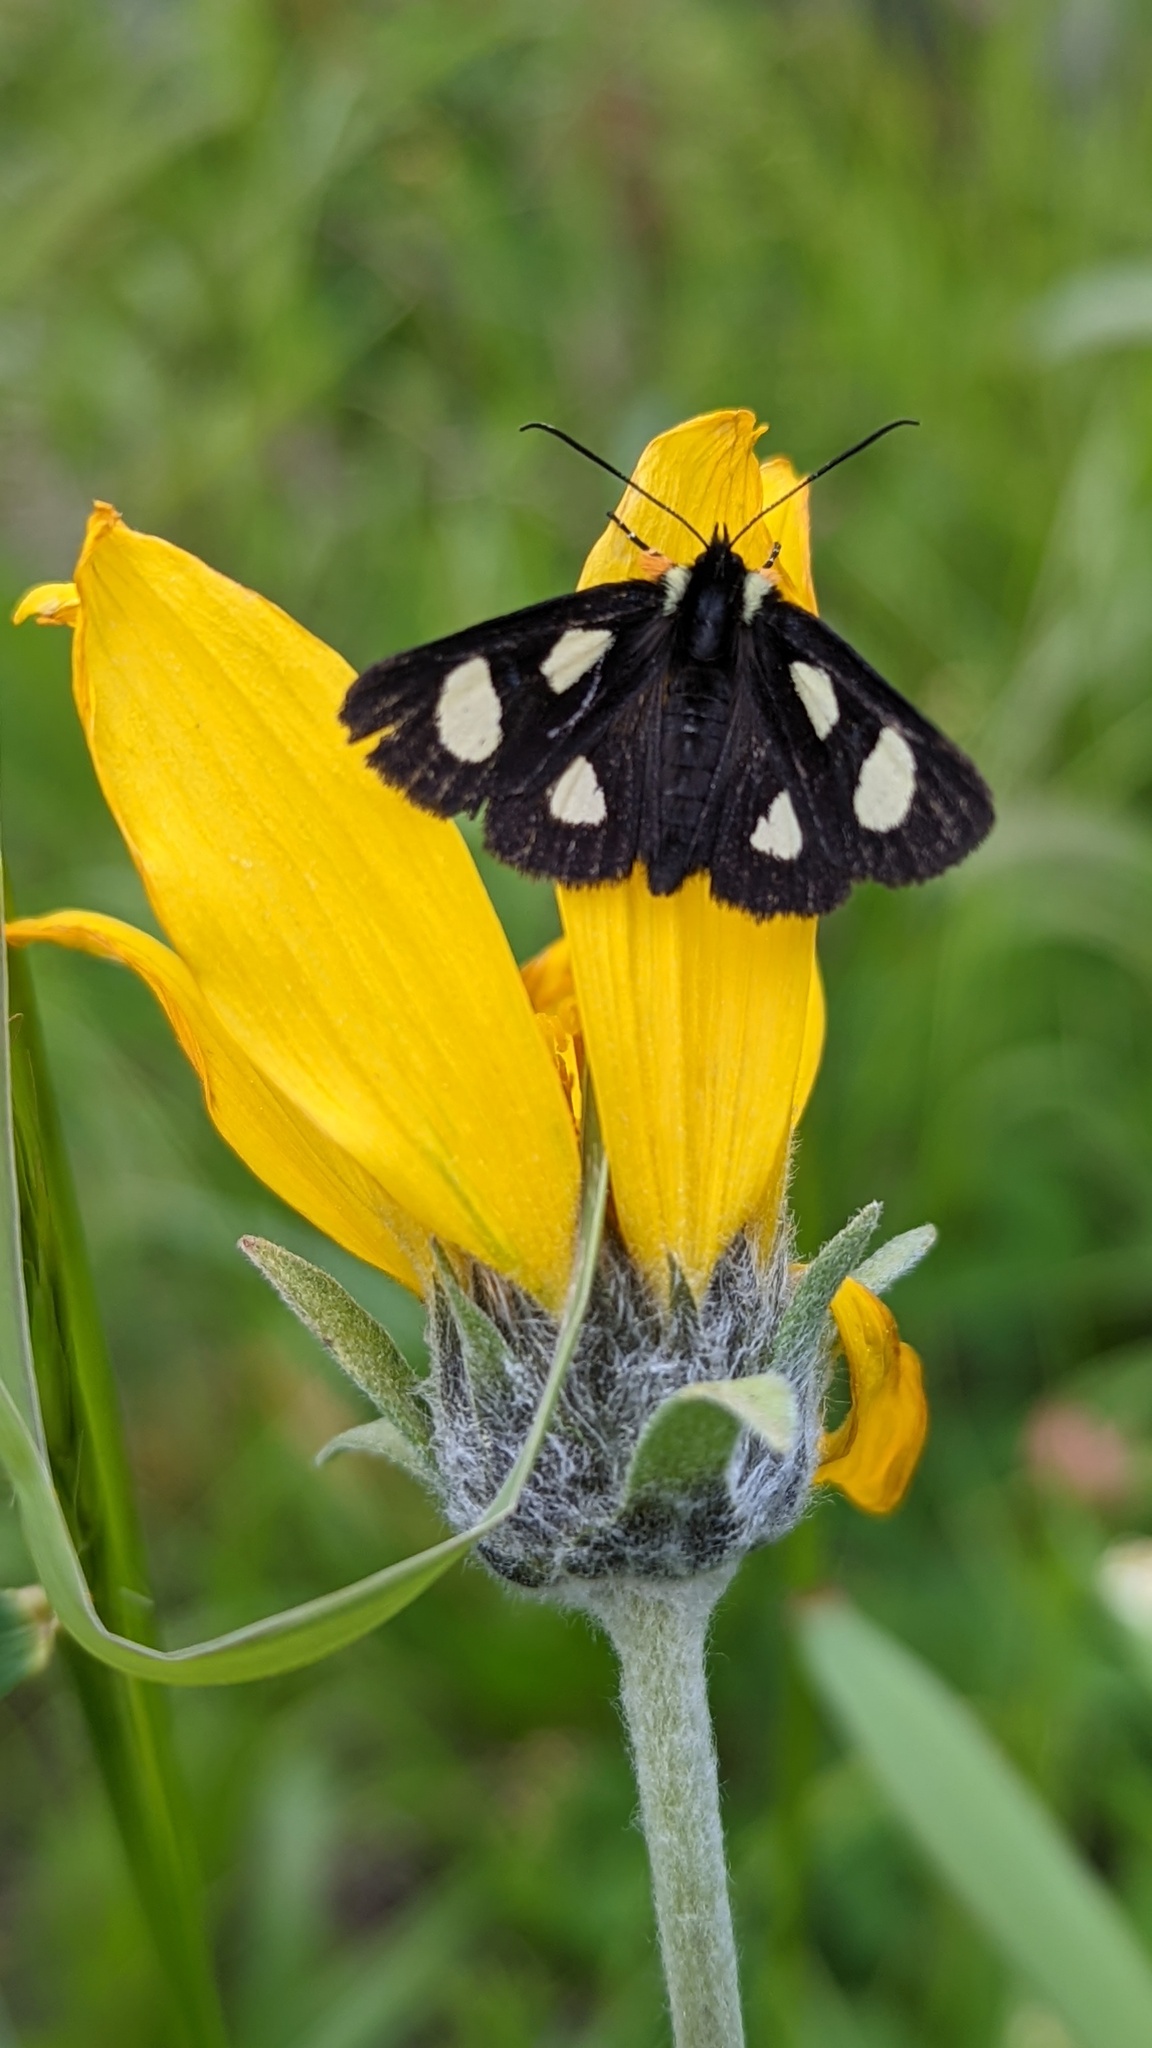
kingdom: Animalia
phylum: Arthropoda
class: Insecta
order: Lepidoptera
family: Noctuidae
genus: Alypia
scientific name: Alypia langtonii
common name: Fireweed caterpillar
